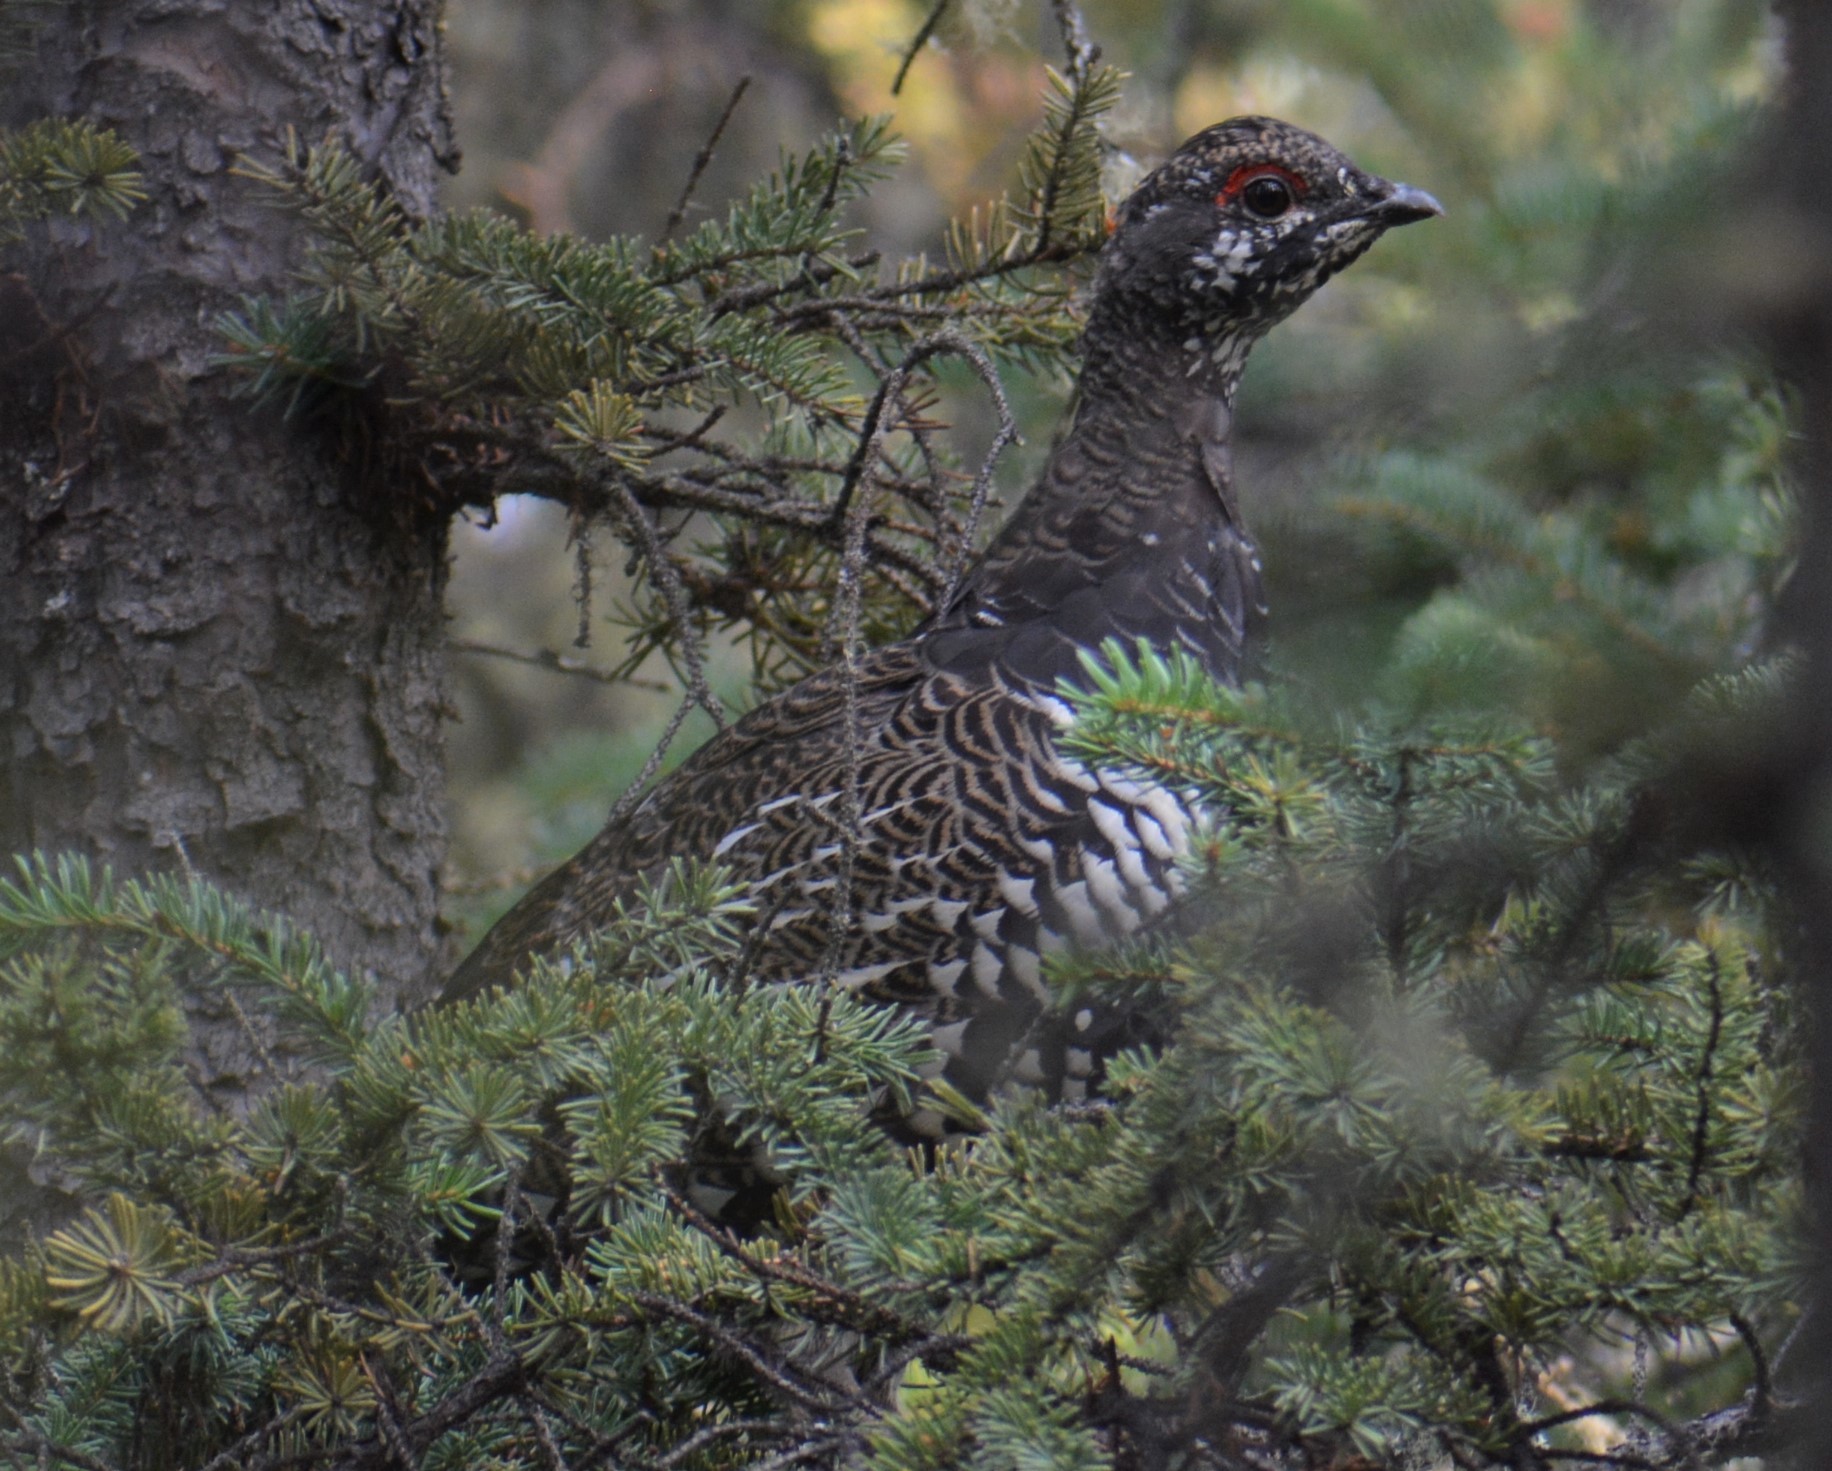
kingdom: Animalia
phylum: Chordata
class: Aves
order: Galliformes
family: Phasianidae
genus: Canachites
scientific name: Canachites canadensis
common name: Spruce grouse
